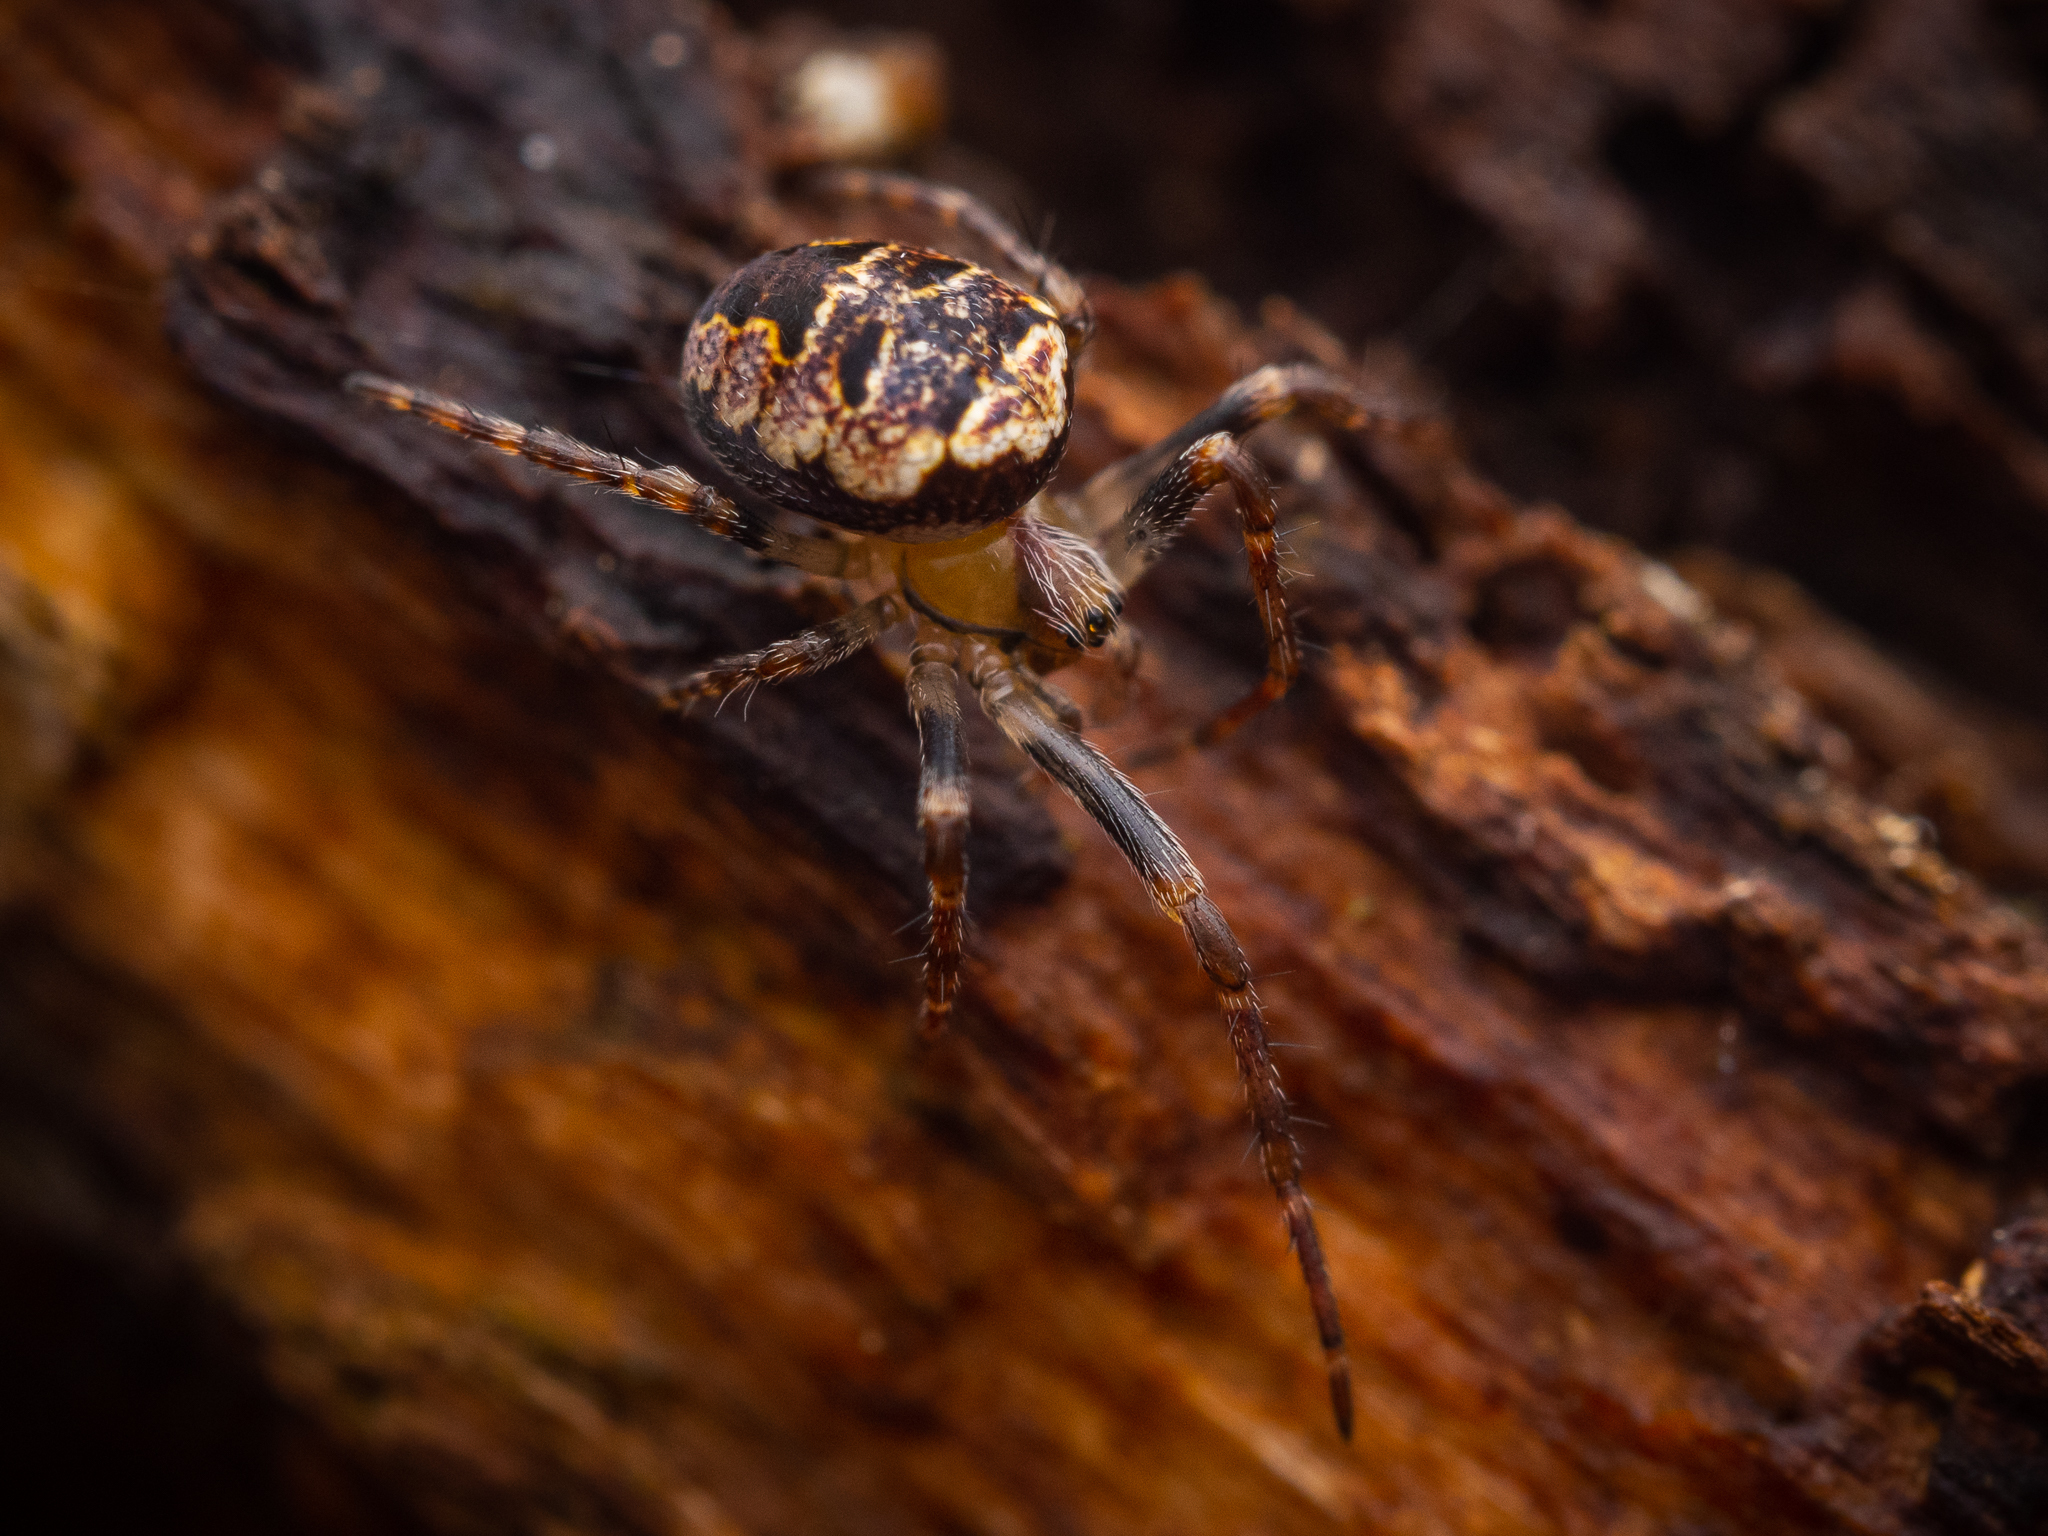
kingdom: Animalia
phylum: Arthropoda
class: Arachnida
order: Araneae
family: Araneidae
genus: Zilla
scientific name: Zilla diodia
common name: Zilla diodia
